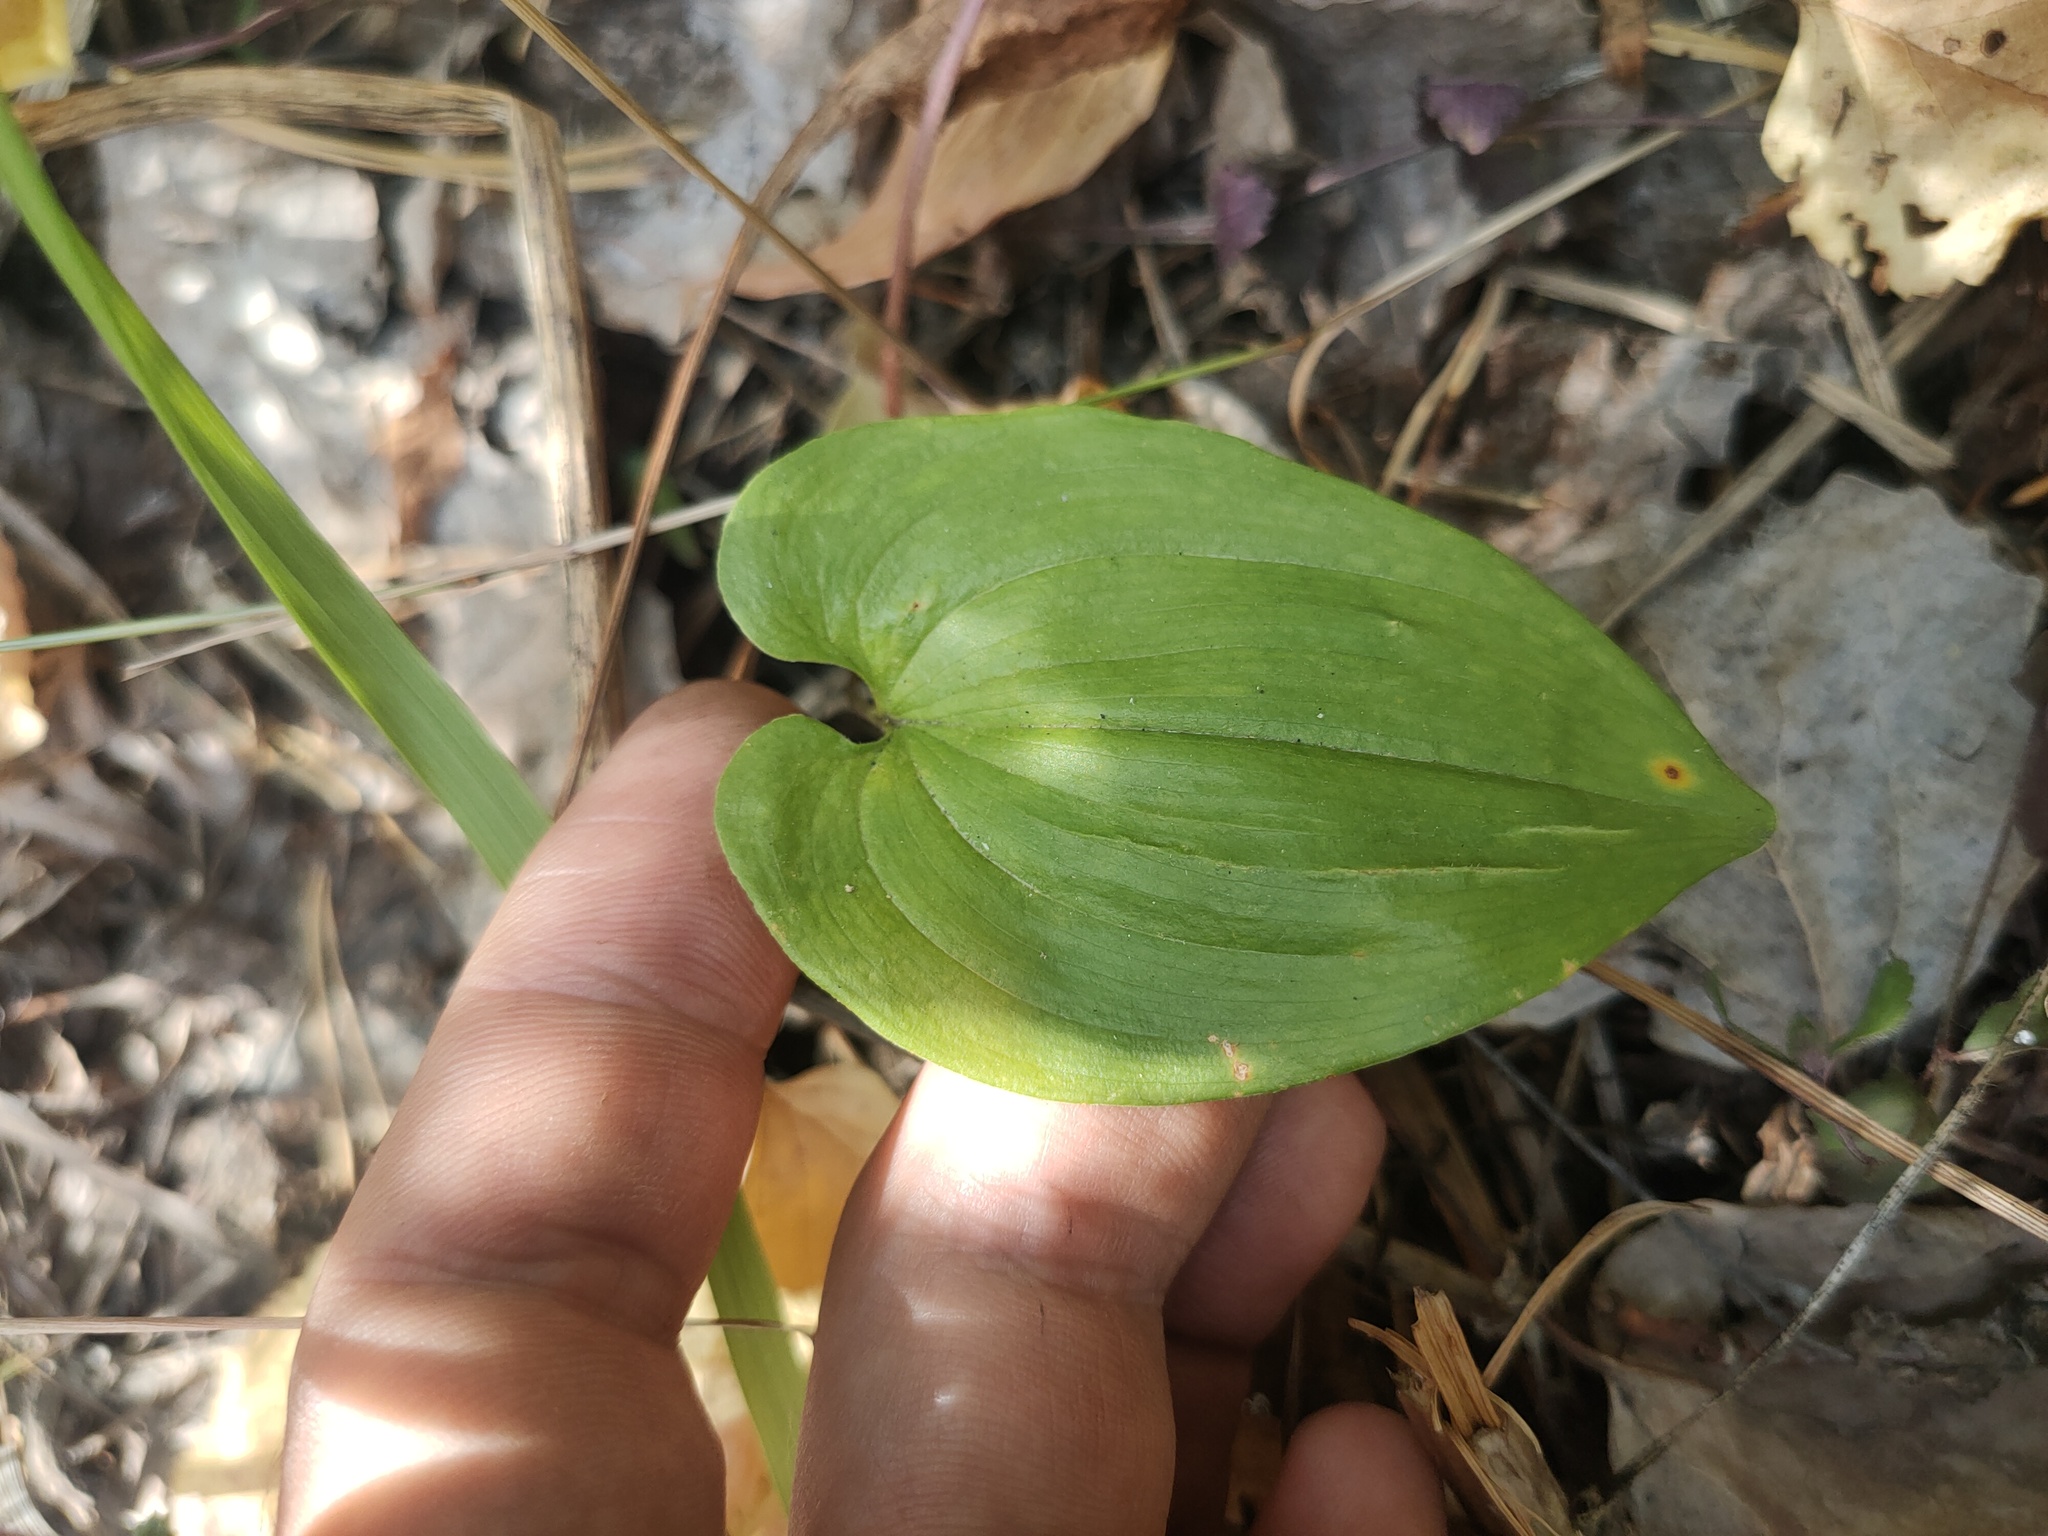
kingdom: Plantae
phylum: Tracheophyta
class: Liliopsida
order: Asparagales
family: Asparagaceae
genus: Maianthemum
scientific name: Maianthemum bifolium
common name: May lily
